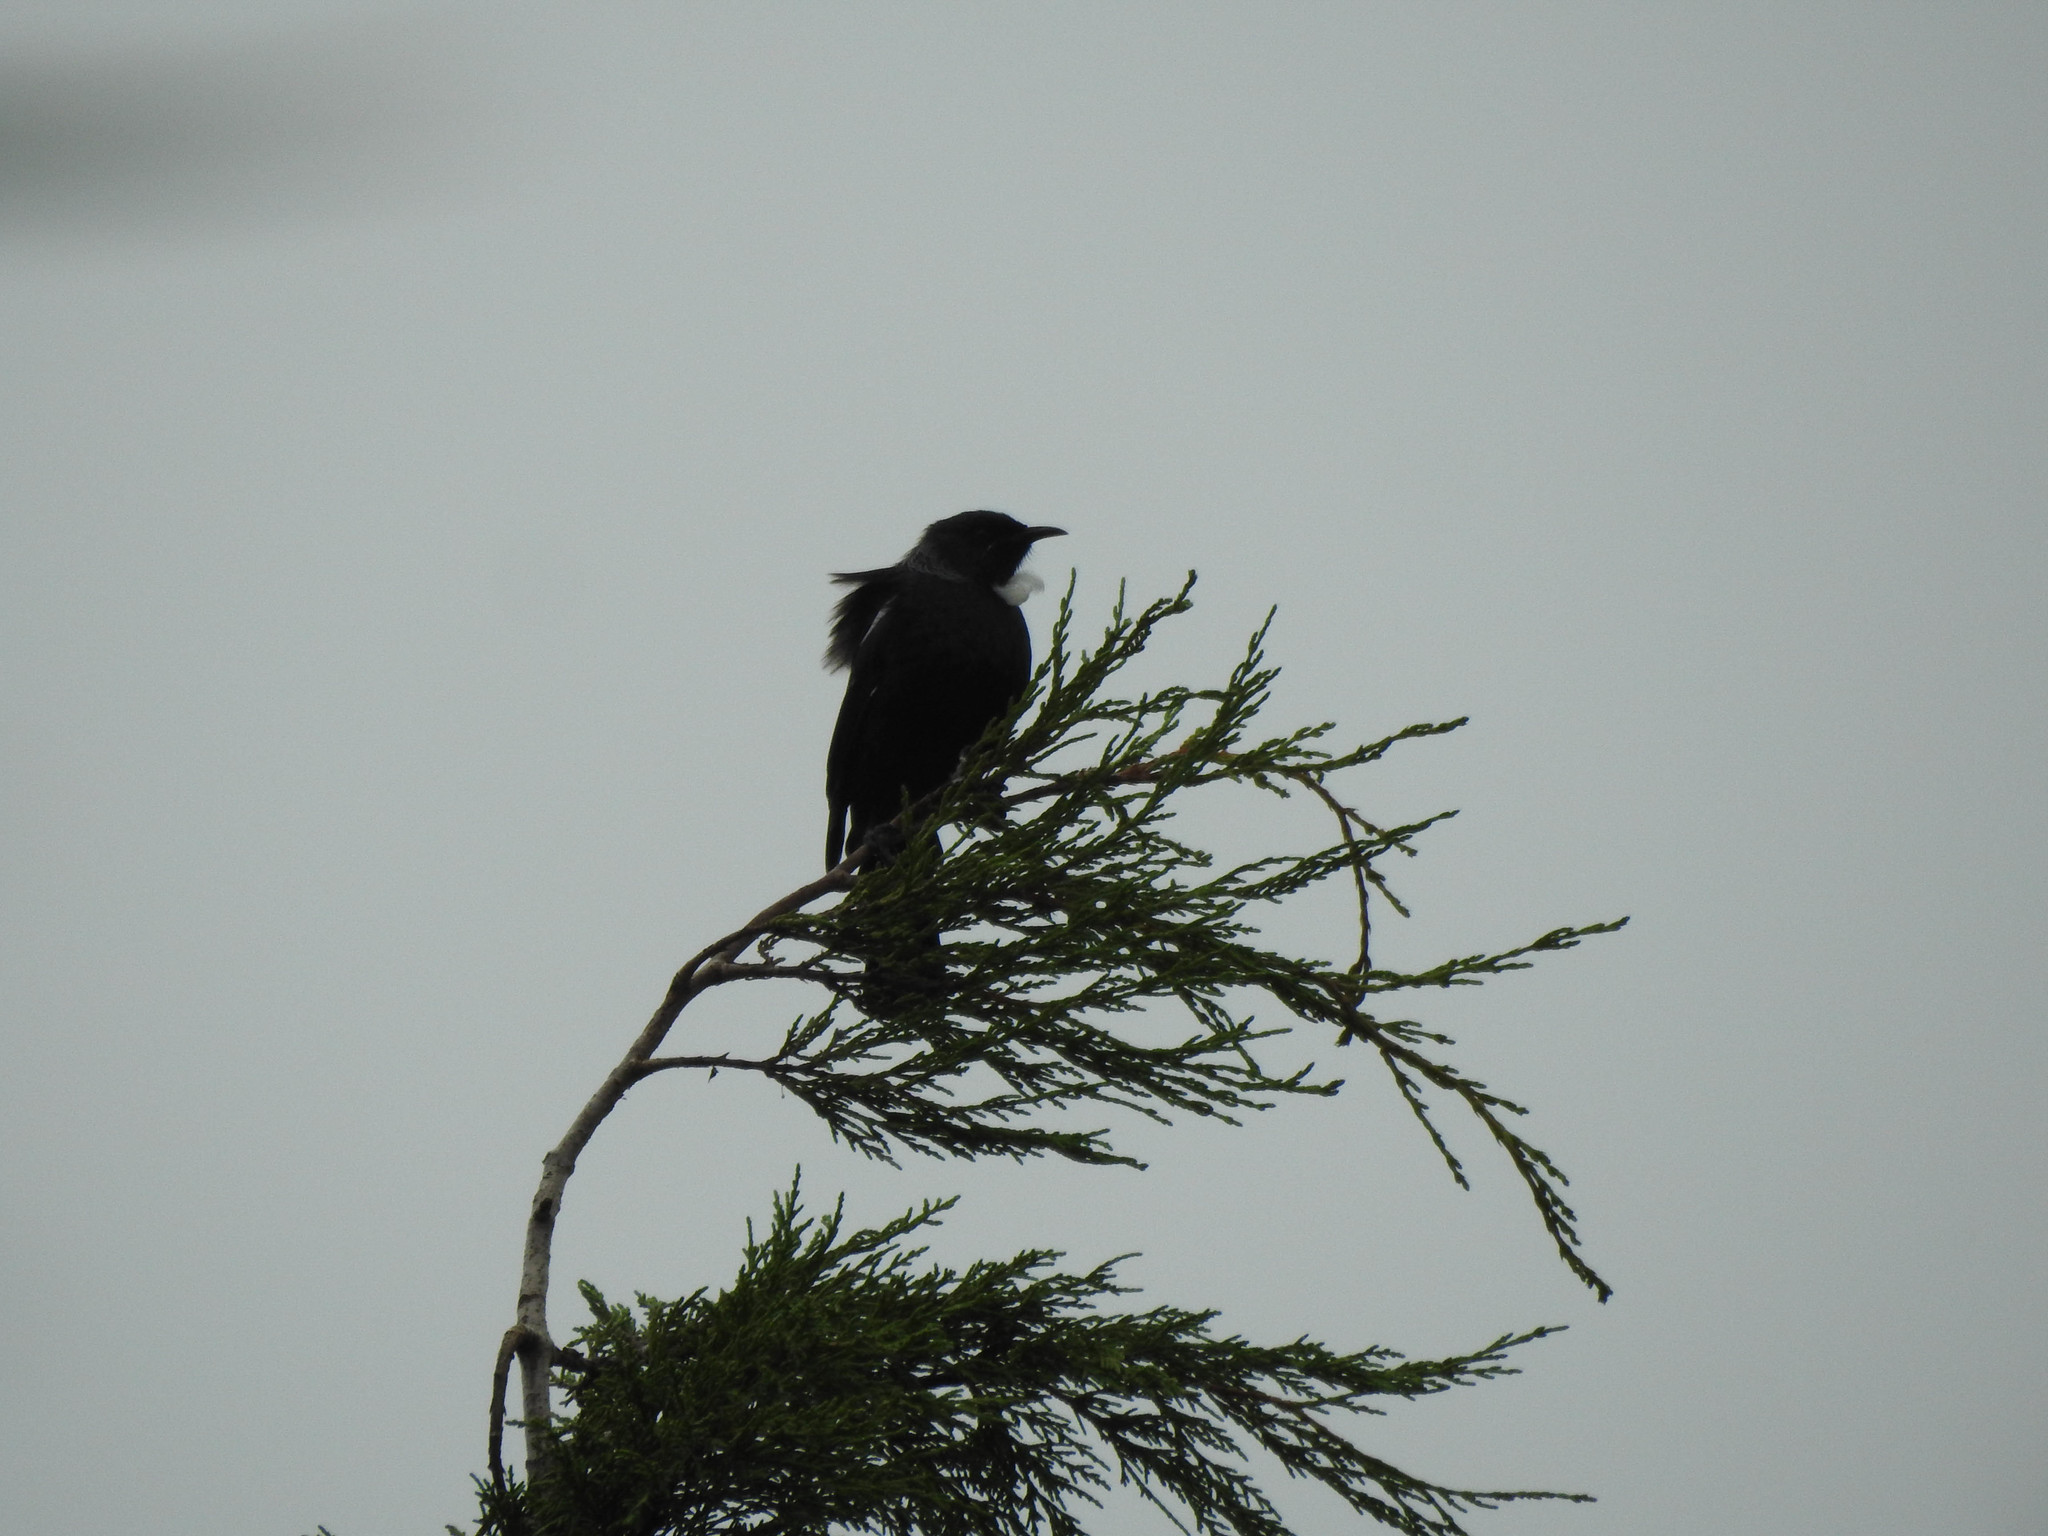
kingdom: Animalia
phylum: Chordata
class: Aves
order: Passeriformes
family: Meliphagidae
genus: Prosthemadera
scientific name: Prosthemadera novaeseelandiae
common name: Tui
